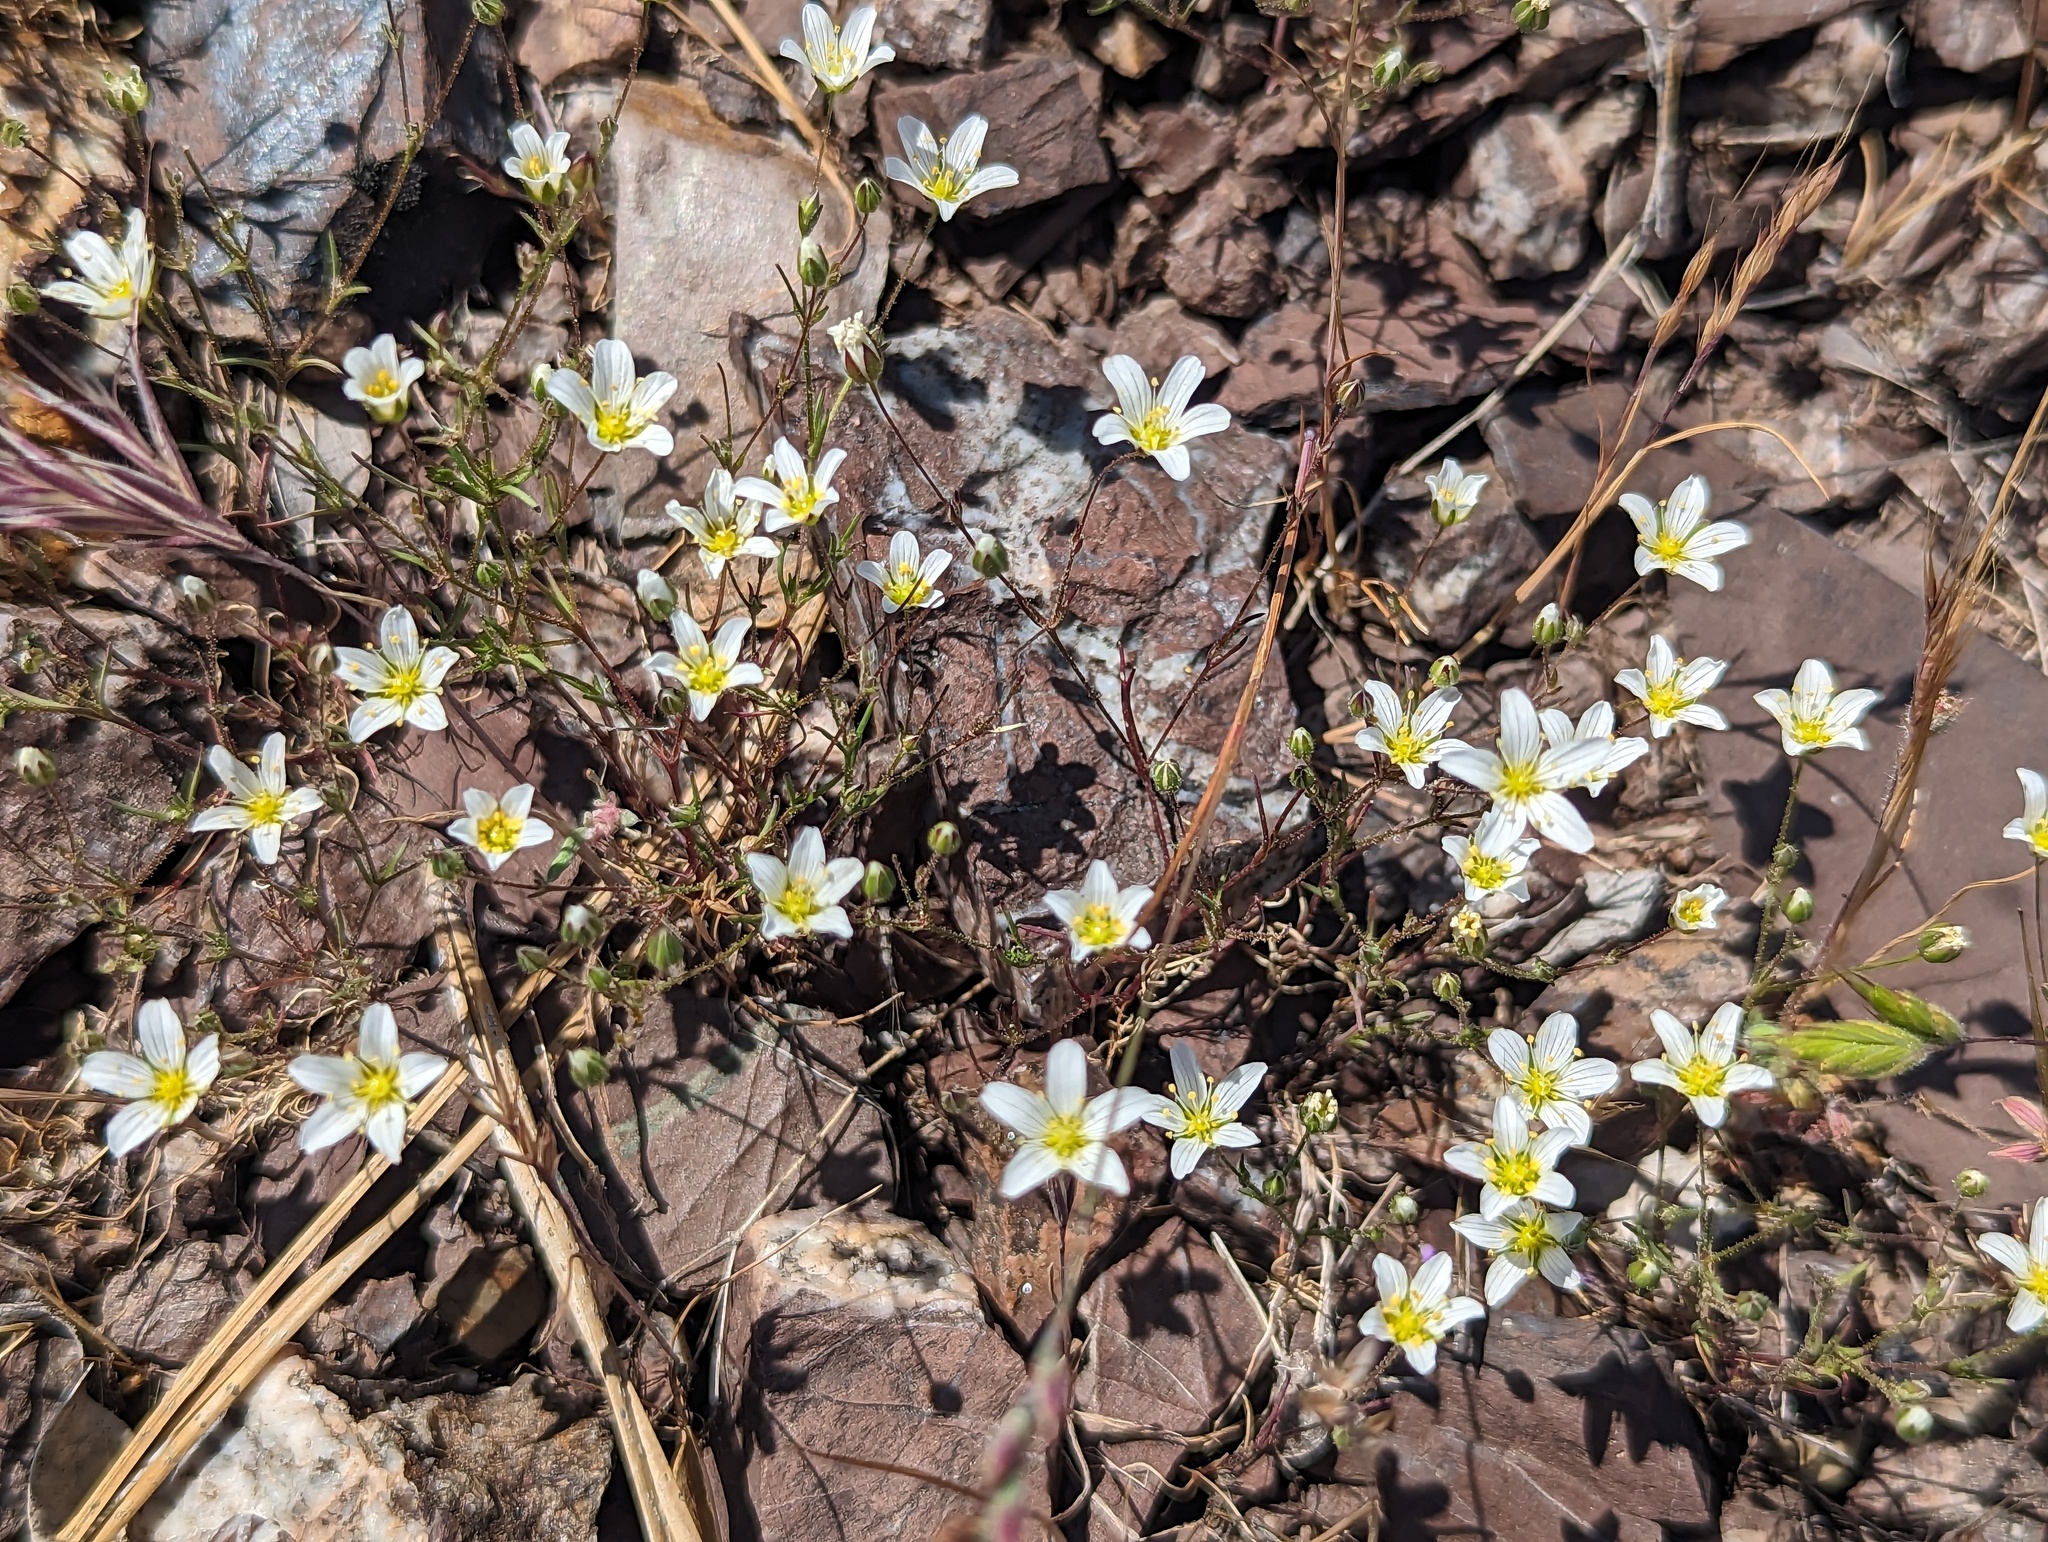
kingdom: Plantae
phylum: Tracheophyta
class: Magnoliopsida
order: Caryophyllales
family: Caryophyllaceae
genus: Sabulina
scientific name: Sabulina douglasii
